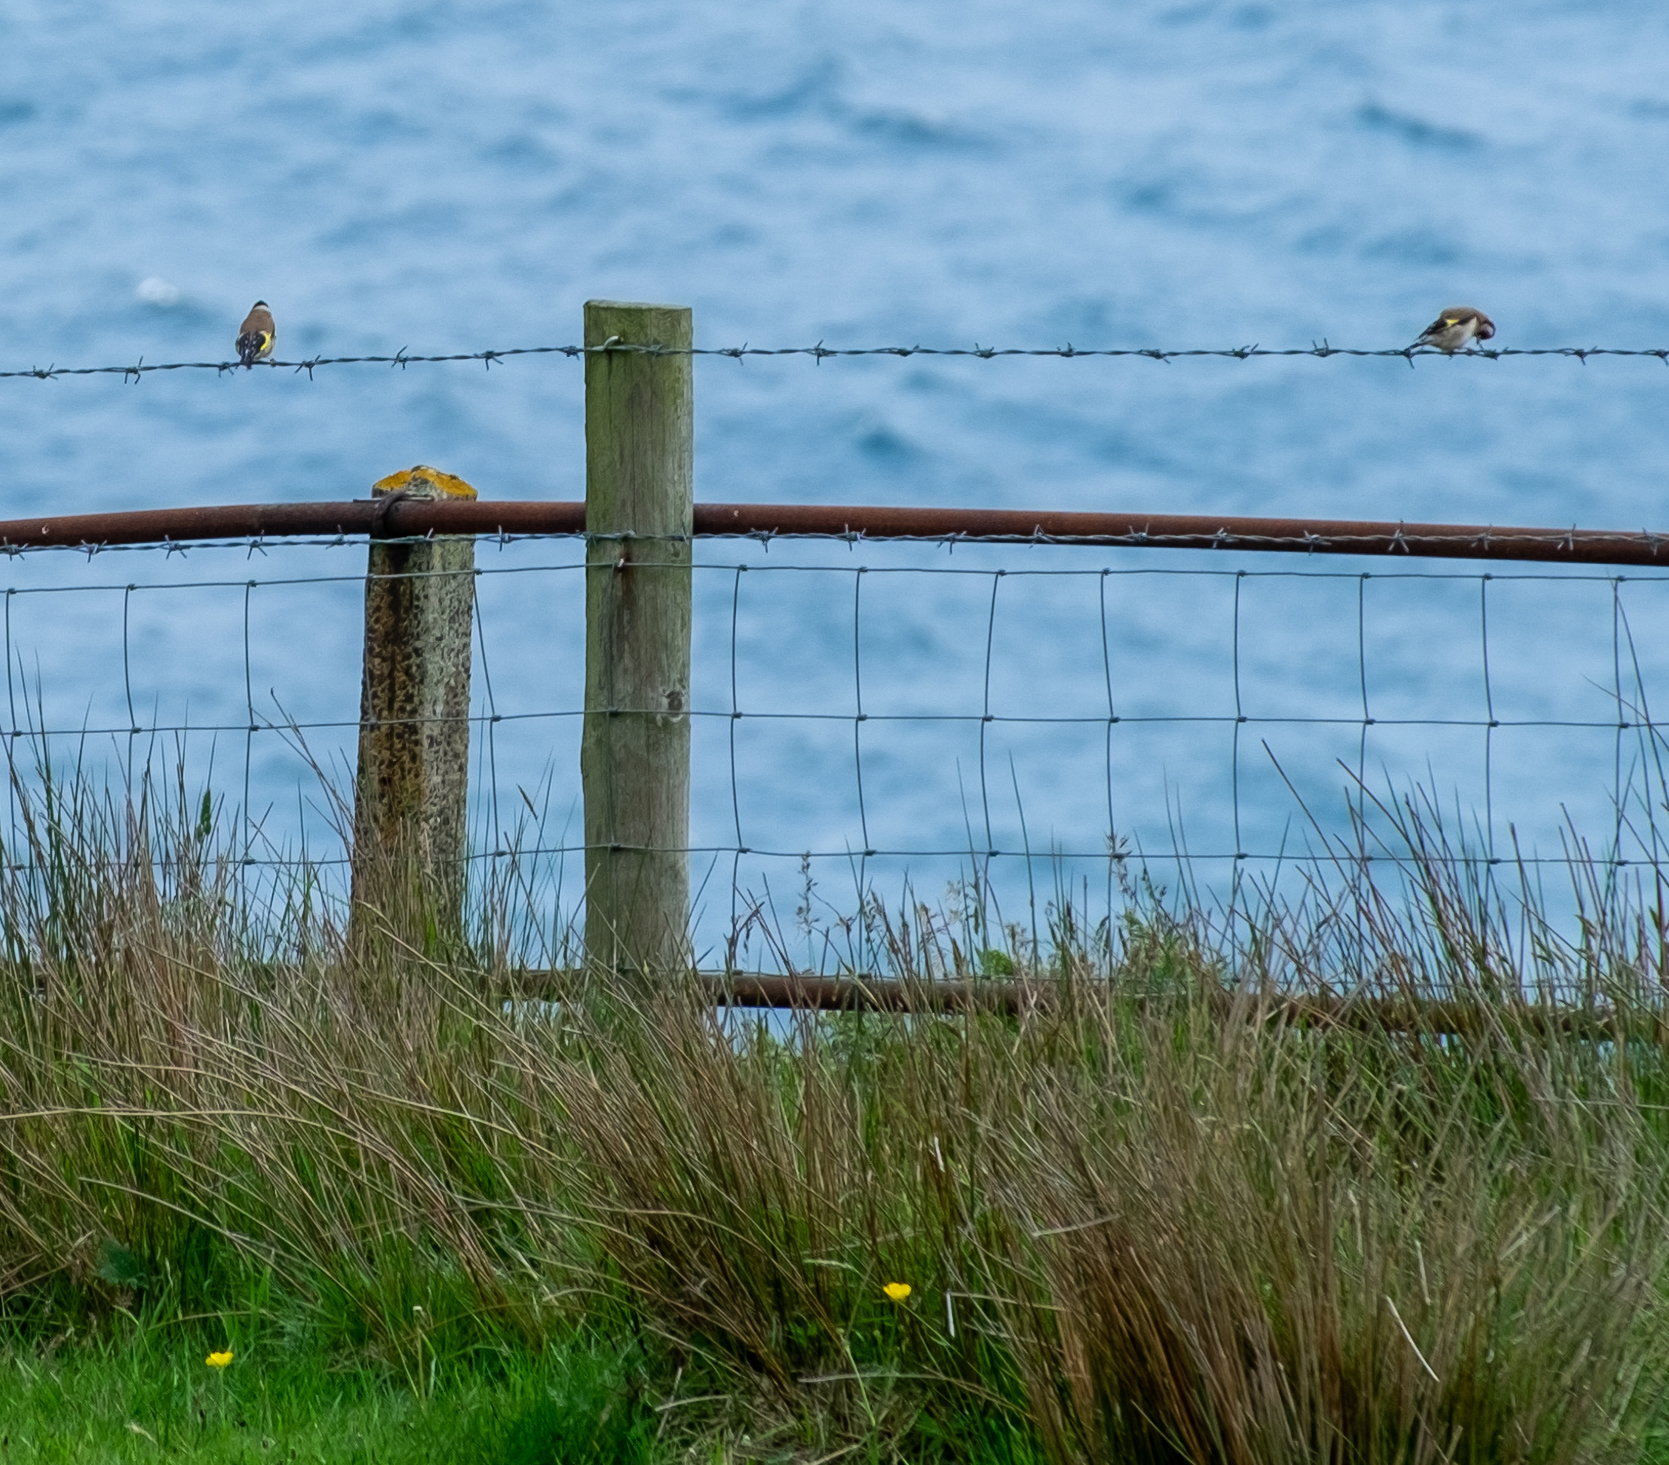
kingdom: Animalia
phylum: Chordata
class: Aves
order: Passeriformes
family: Fringillidae
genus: Carduelis
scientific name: Carduelis carduelis
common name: European goldfinch
